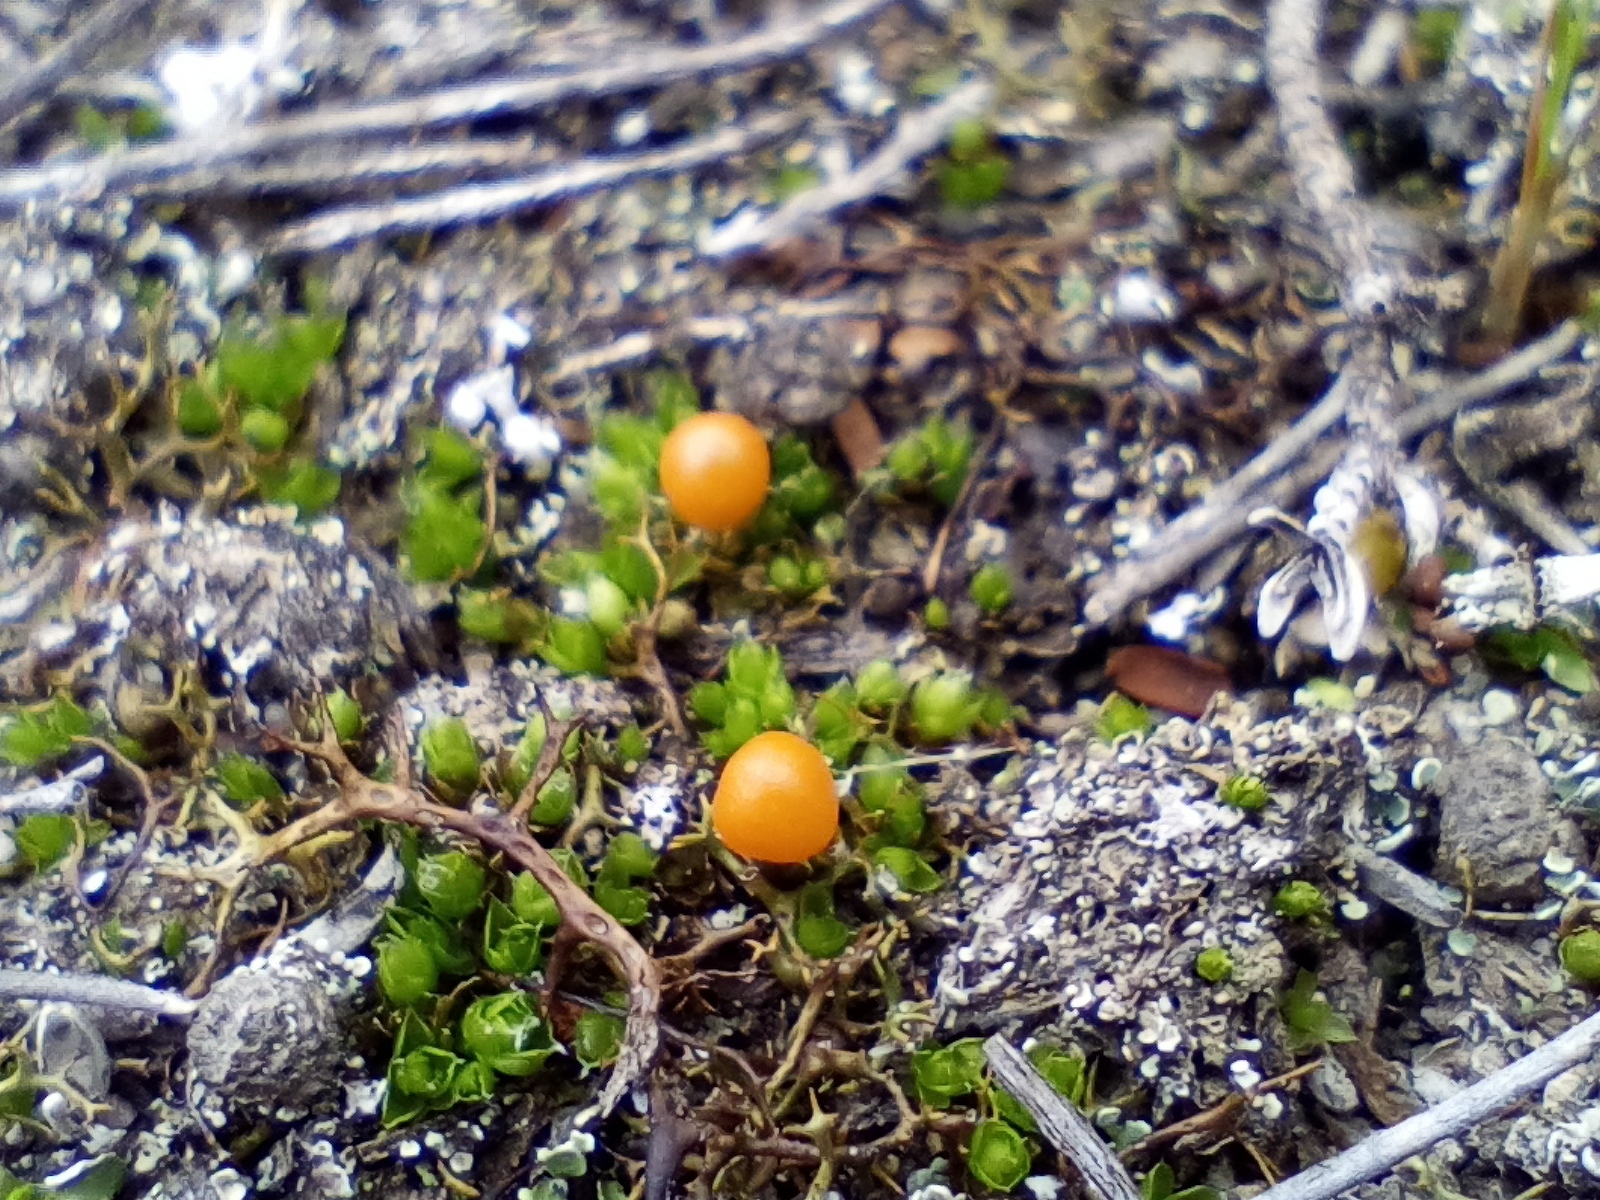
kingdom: Plantae
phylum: Bryophyta
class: Bryopsida
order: Pottiales
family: Pleurophascaceae
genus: Pleurophascum
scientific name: Pleurophascum occidentale
